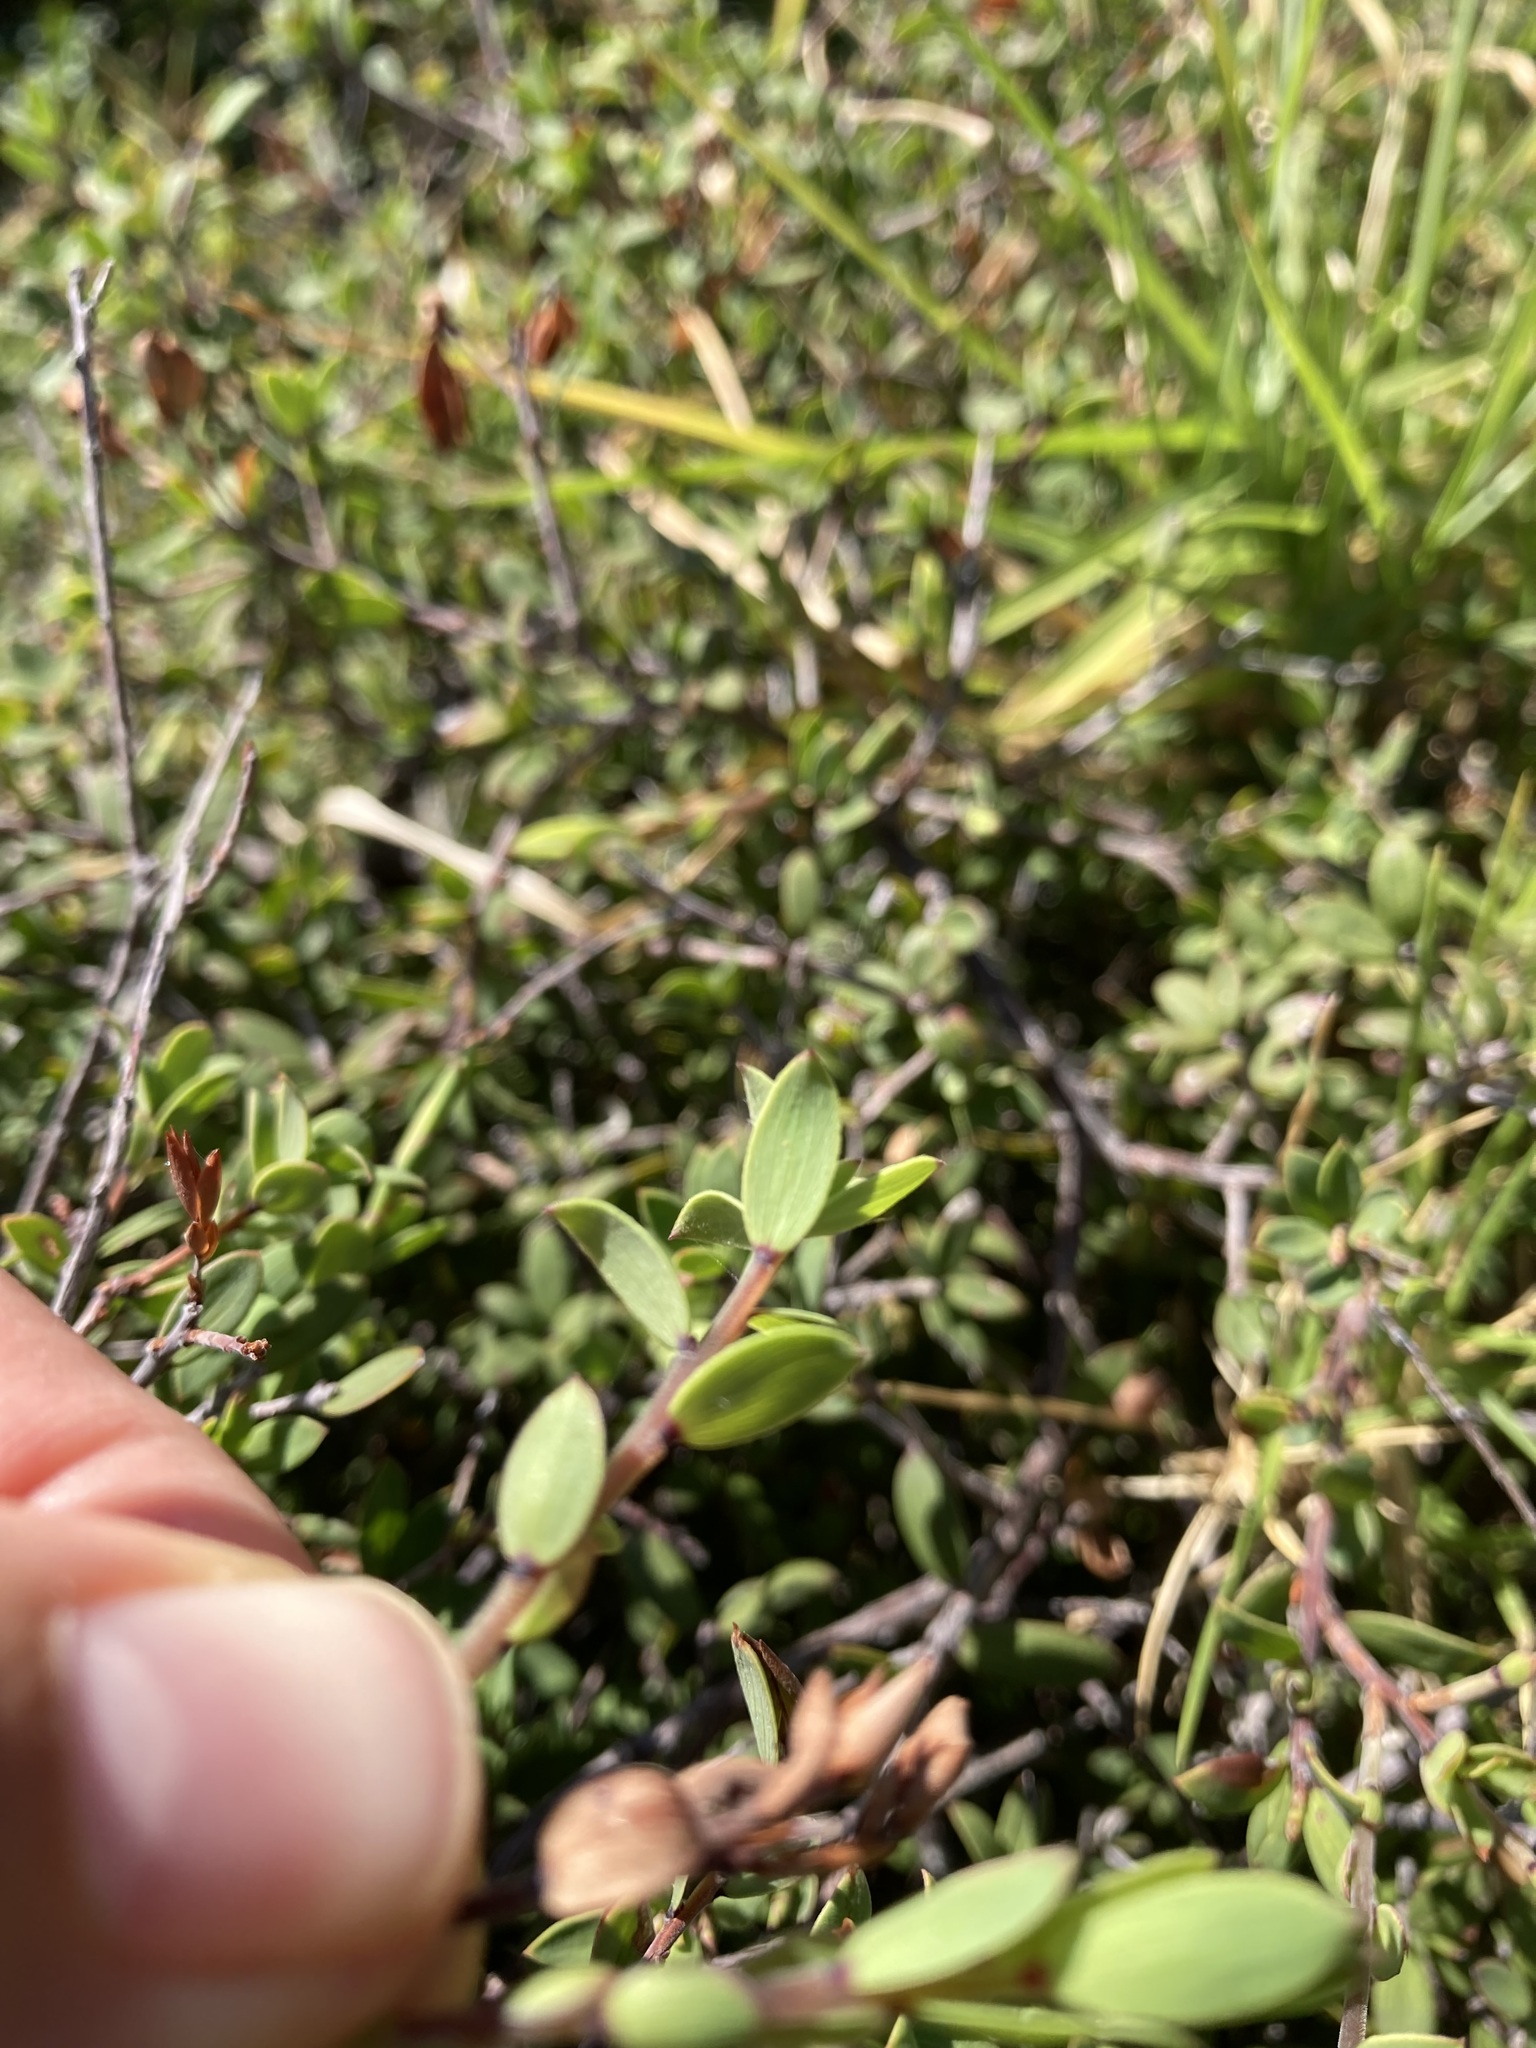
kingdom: Plantae
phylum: Tracheophyta
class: Magnoliopsida
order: Ericales
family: Ericaceae
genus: Leucopogon
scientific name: Leucopogon fasciculatus
